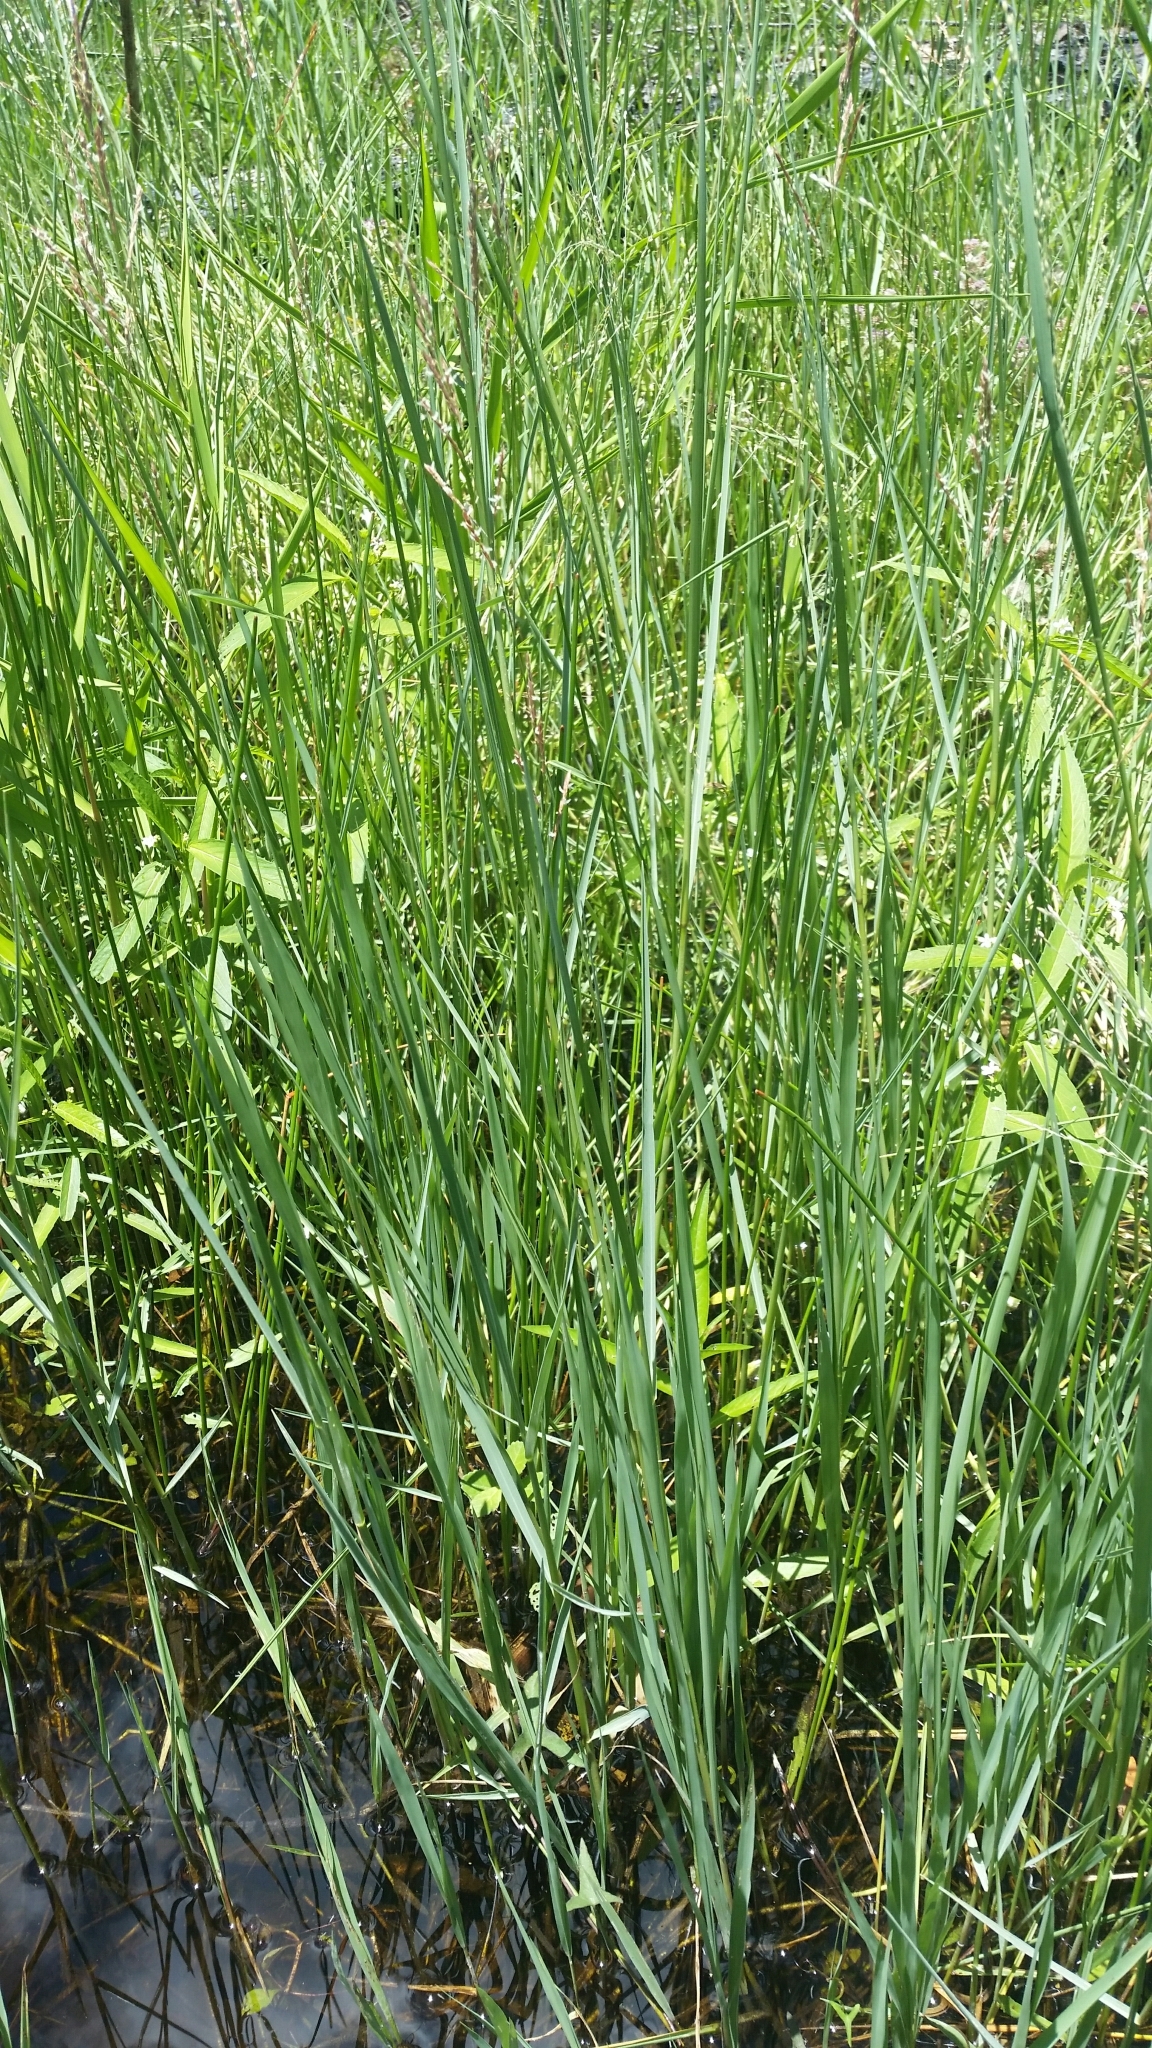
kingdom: Plantae
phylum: Tracheophyta
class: Liliopsida
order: Poales
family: Poaceae
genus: Leersia
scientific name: Leersia hexandra
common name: Southern cut grass
